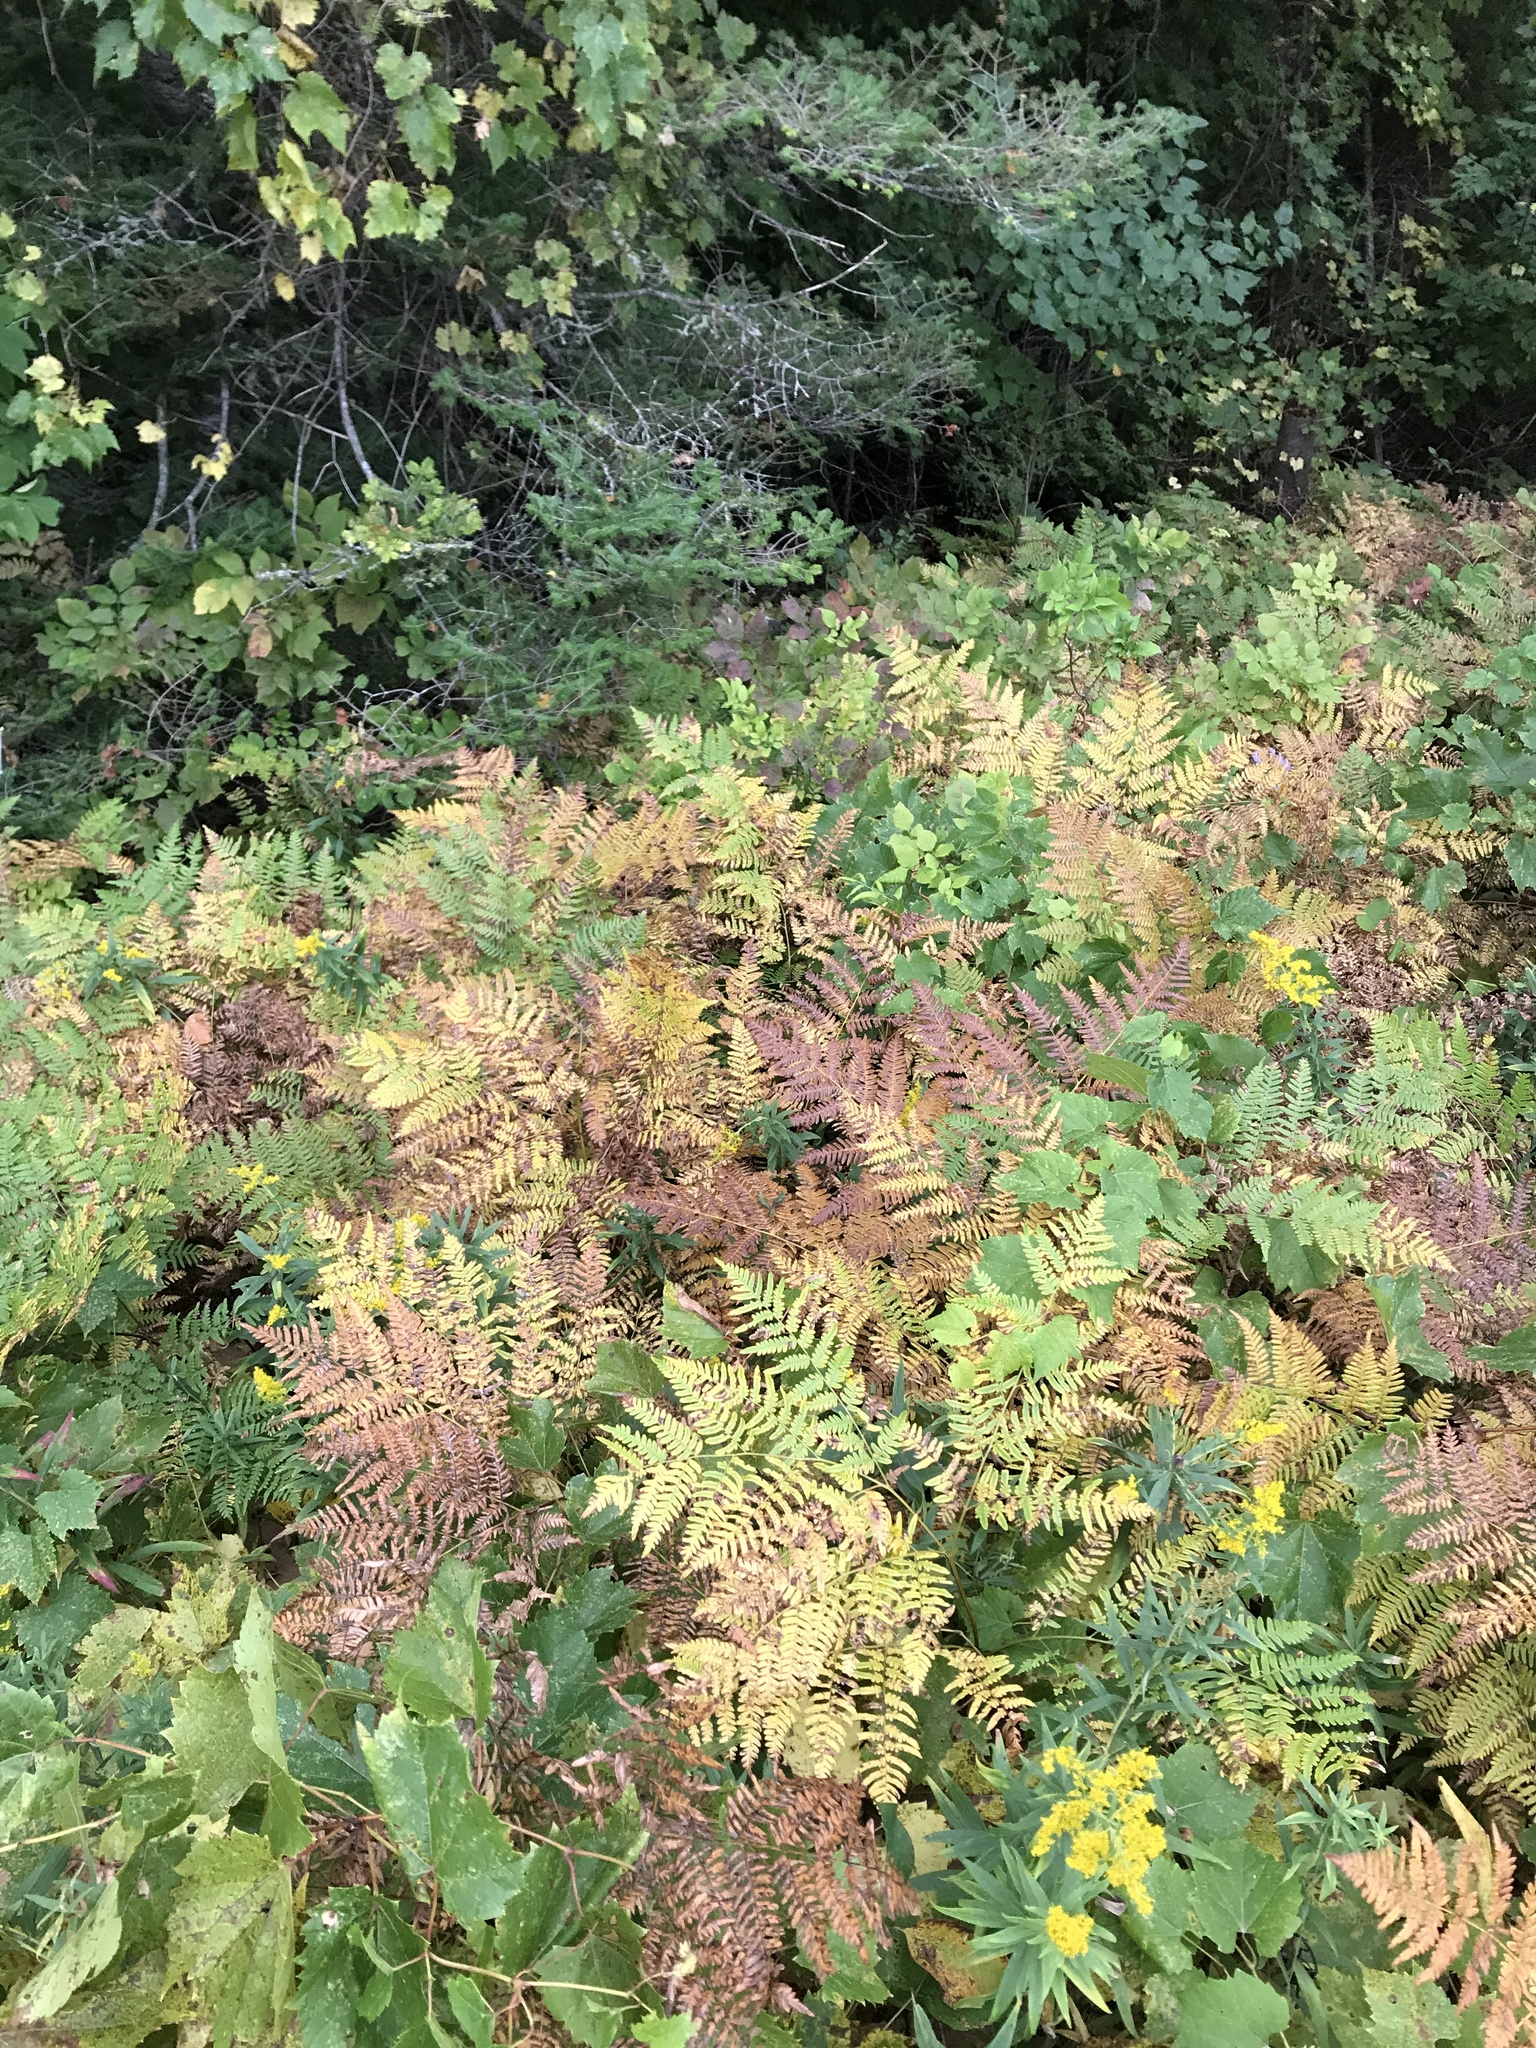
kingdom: Plantae
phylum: Tracheophyta
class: Polypodiopsida
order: Polypodiales
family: Dennstaedtiaceae
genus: Pteridium
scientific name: Pteridium aquilinum
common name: Bracken
